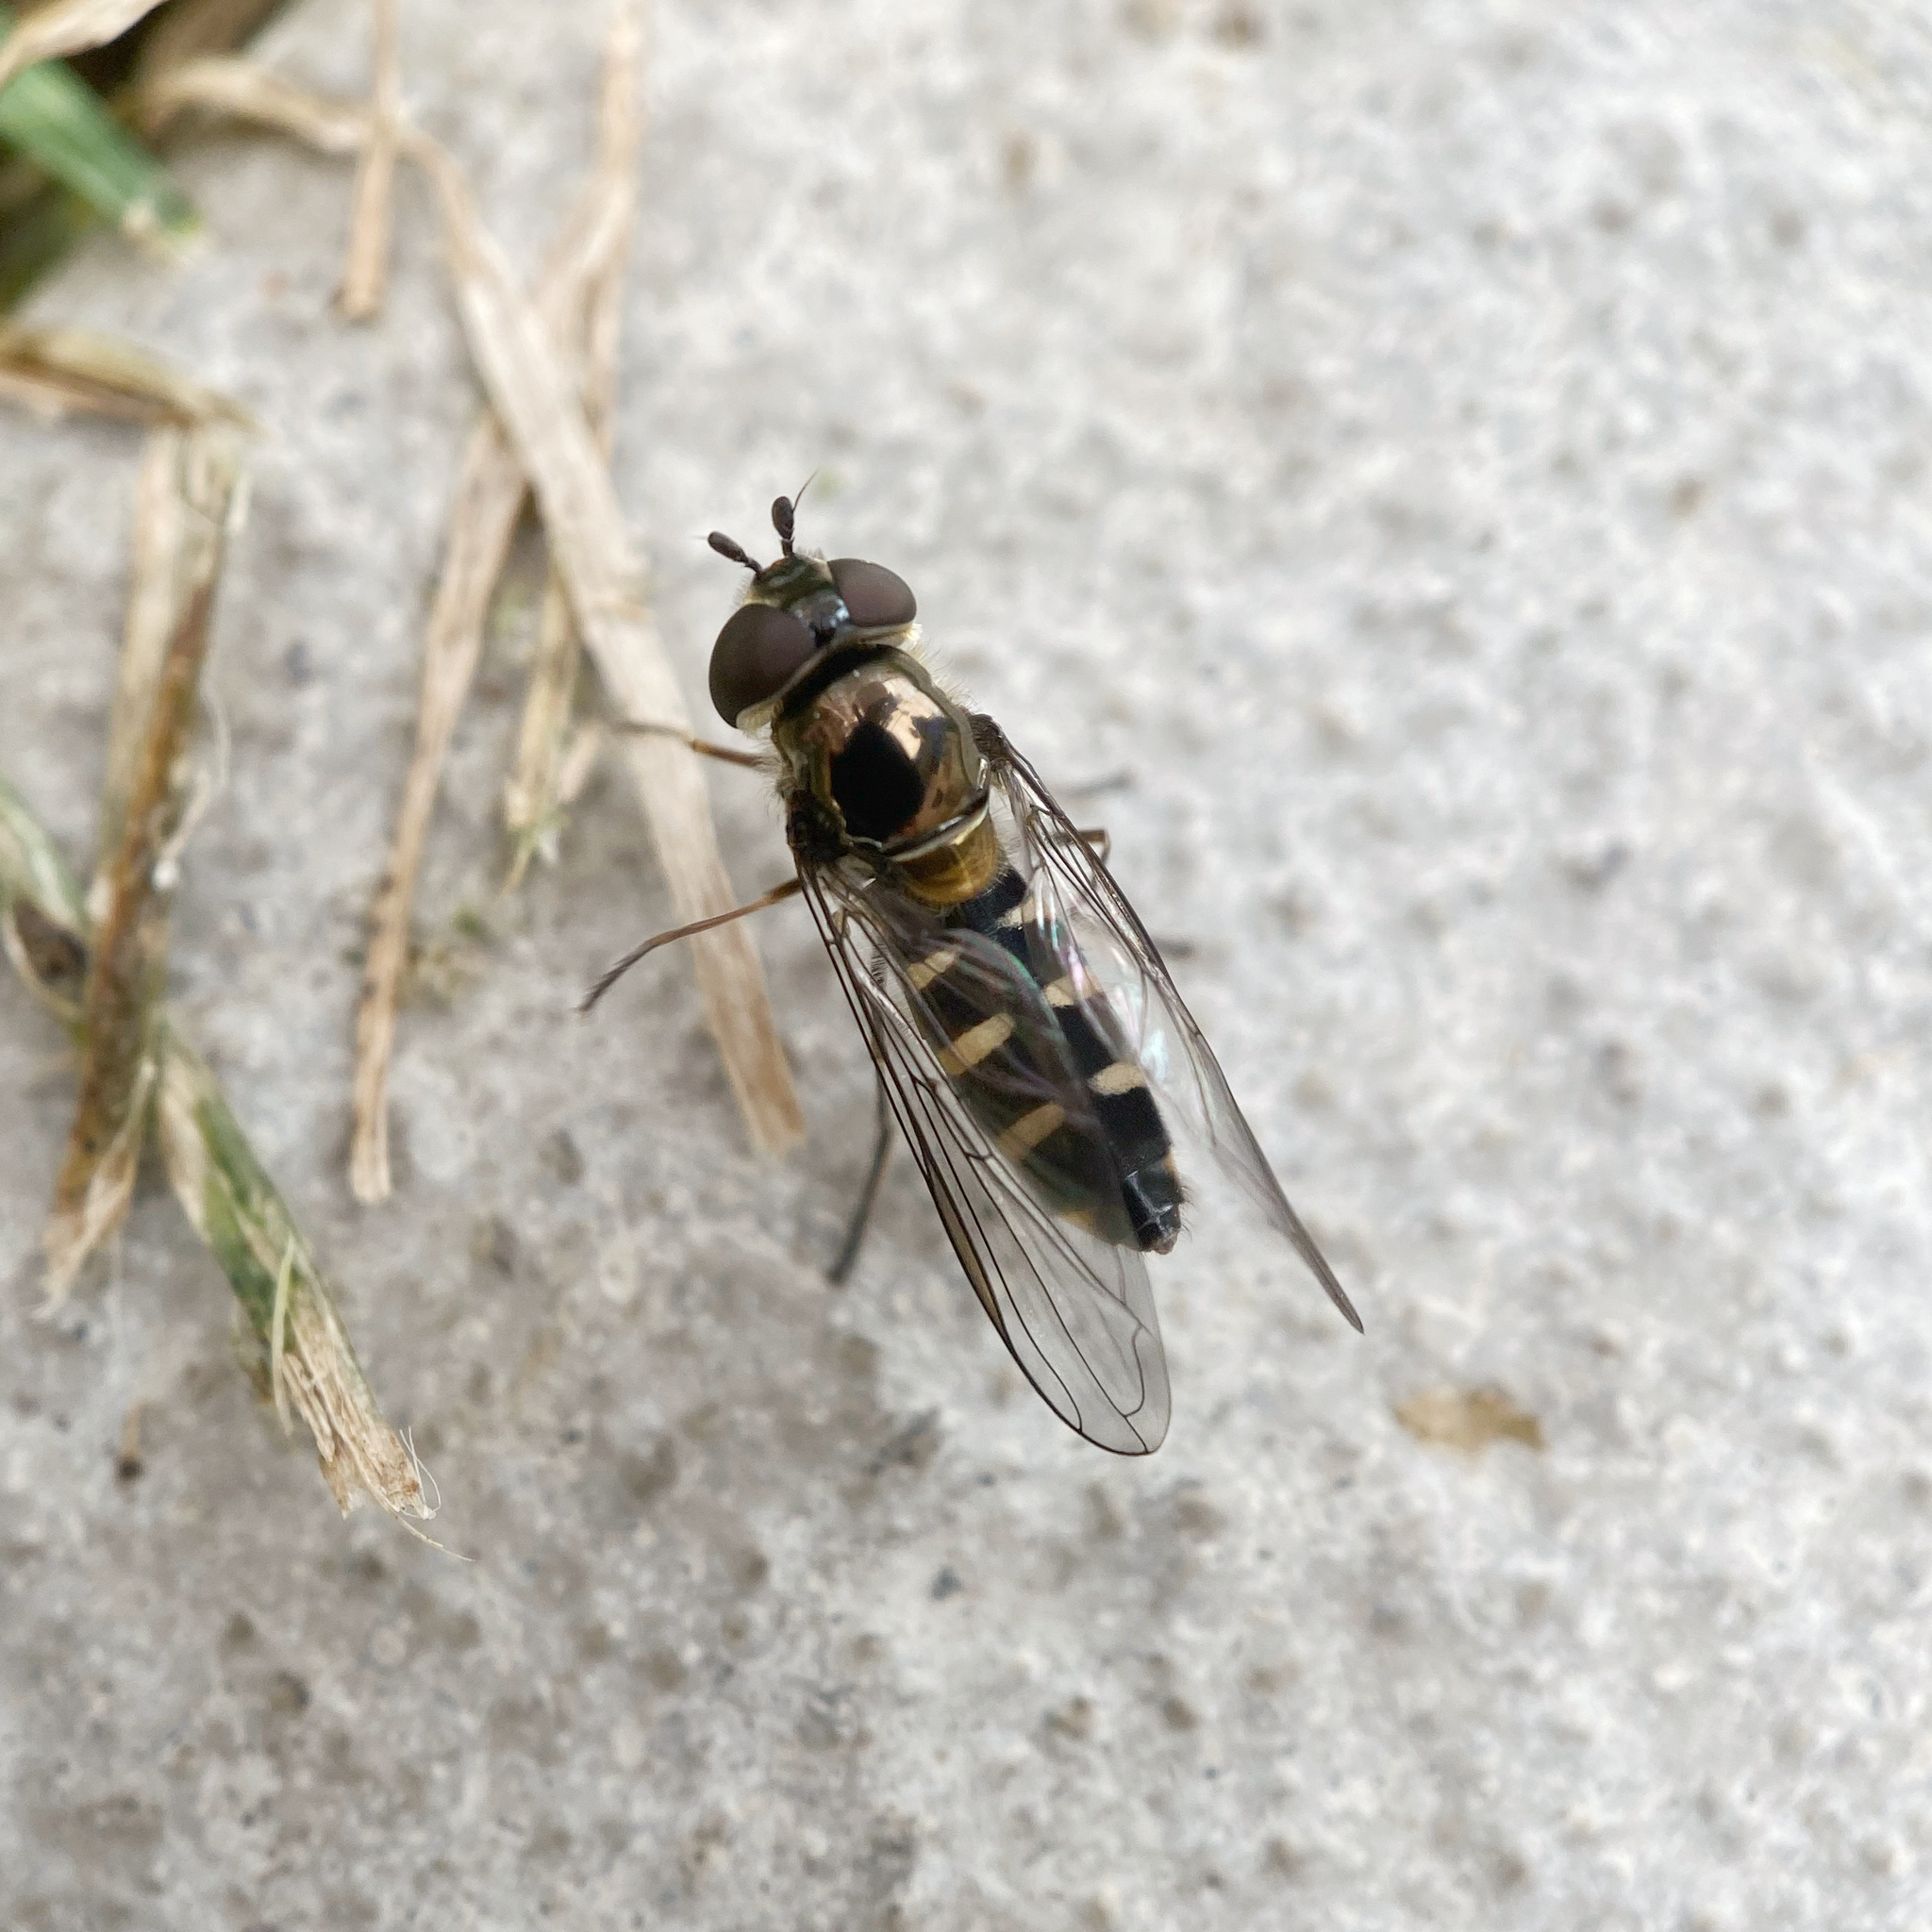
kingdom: Animalia
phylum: Arthropoda
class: Insecta
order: Diptera
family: Syrphidae
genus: Melangyna
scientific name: Melangyna novaezelandiae
